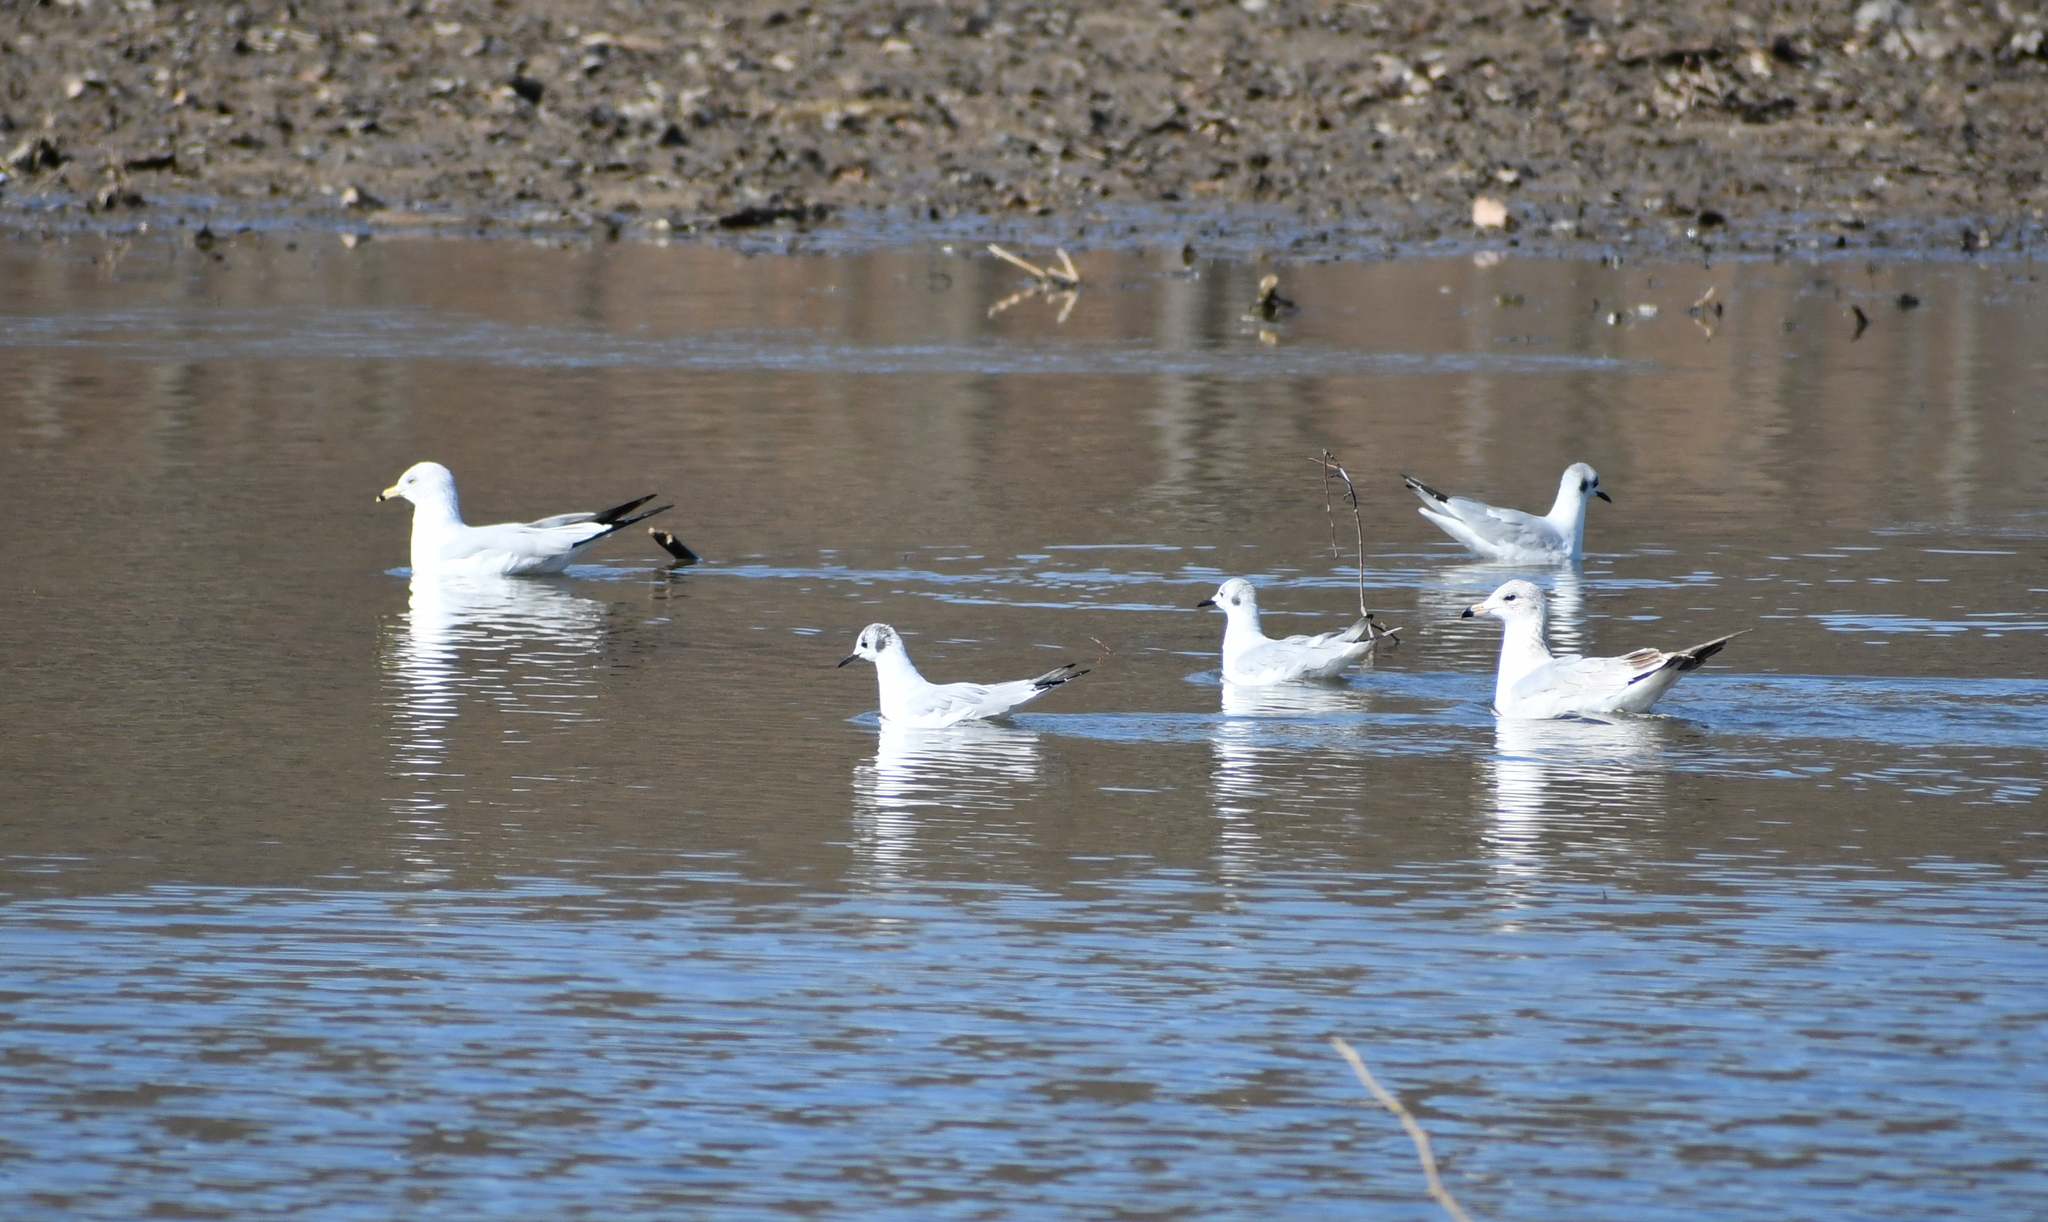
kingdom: Animalia
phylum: Chordata
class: Aves
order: Charadriiformes
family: Laridae
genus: Chroicocephalus
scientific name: Chroicocephalus philadelphia
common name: Bonaparte's gull
